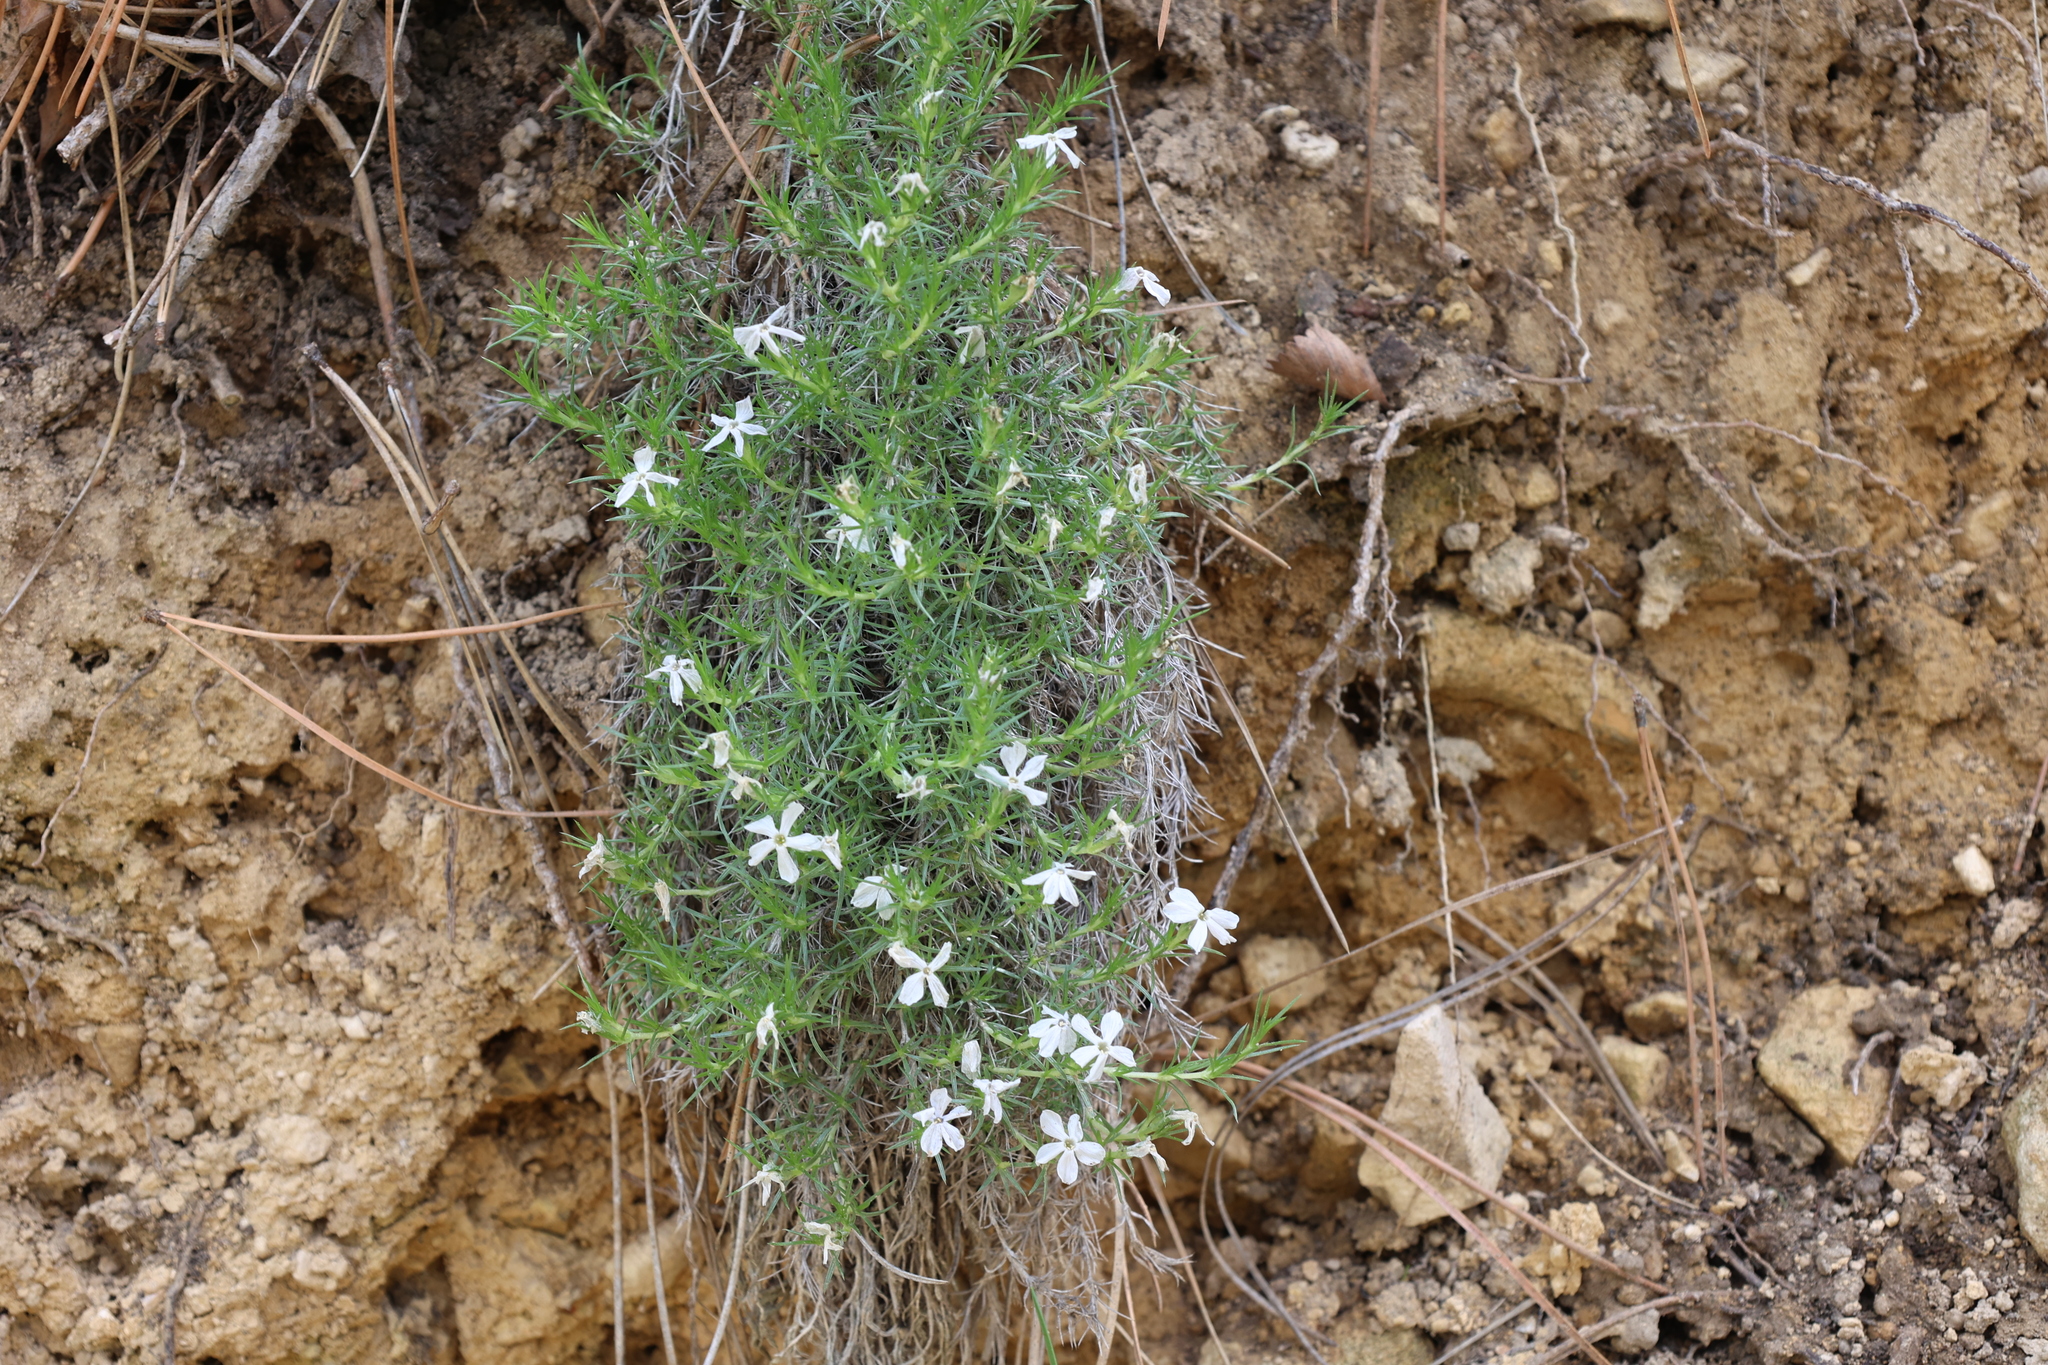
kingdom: Plantae
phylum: Tracheophyta
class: Magnoliopsida
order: Ericales
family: Polemoniaceae
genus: Phlox
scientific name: Phlox hoodii
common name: Moss phlox
